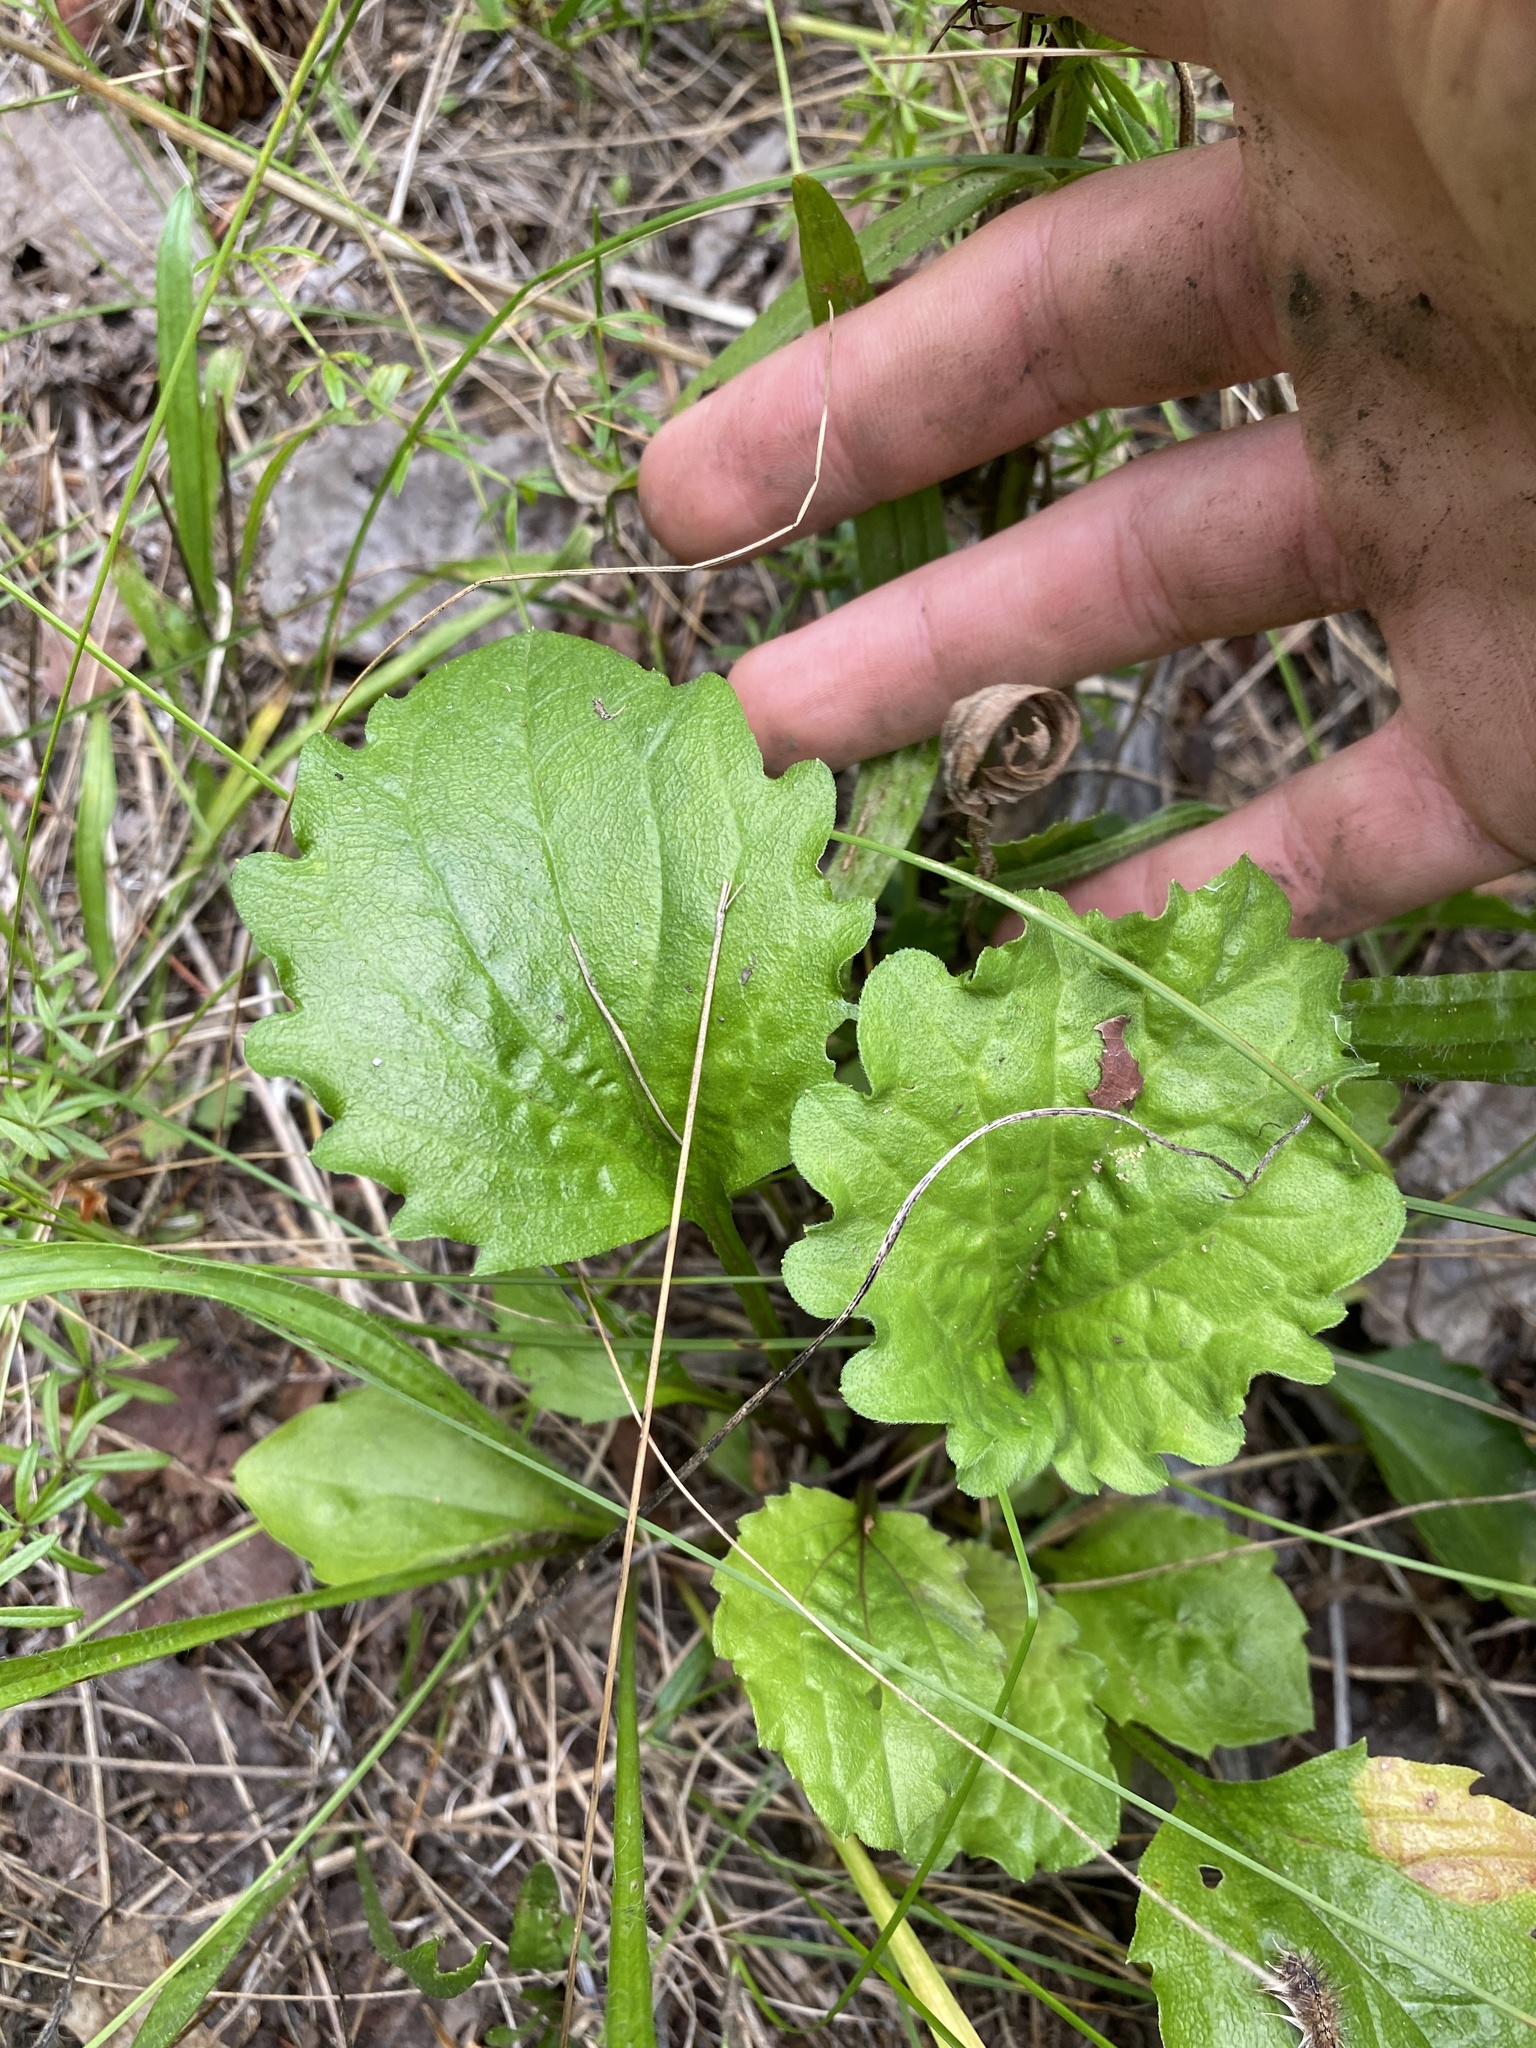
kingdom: Plantae
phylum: Tracheophyta
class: Magnoliopsida
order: Asterales
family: Asteraceae
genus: Erigeron
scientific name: Erigeron annuus
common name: Tall fleabane
